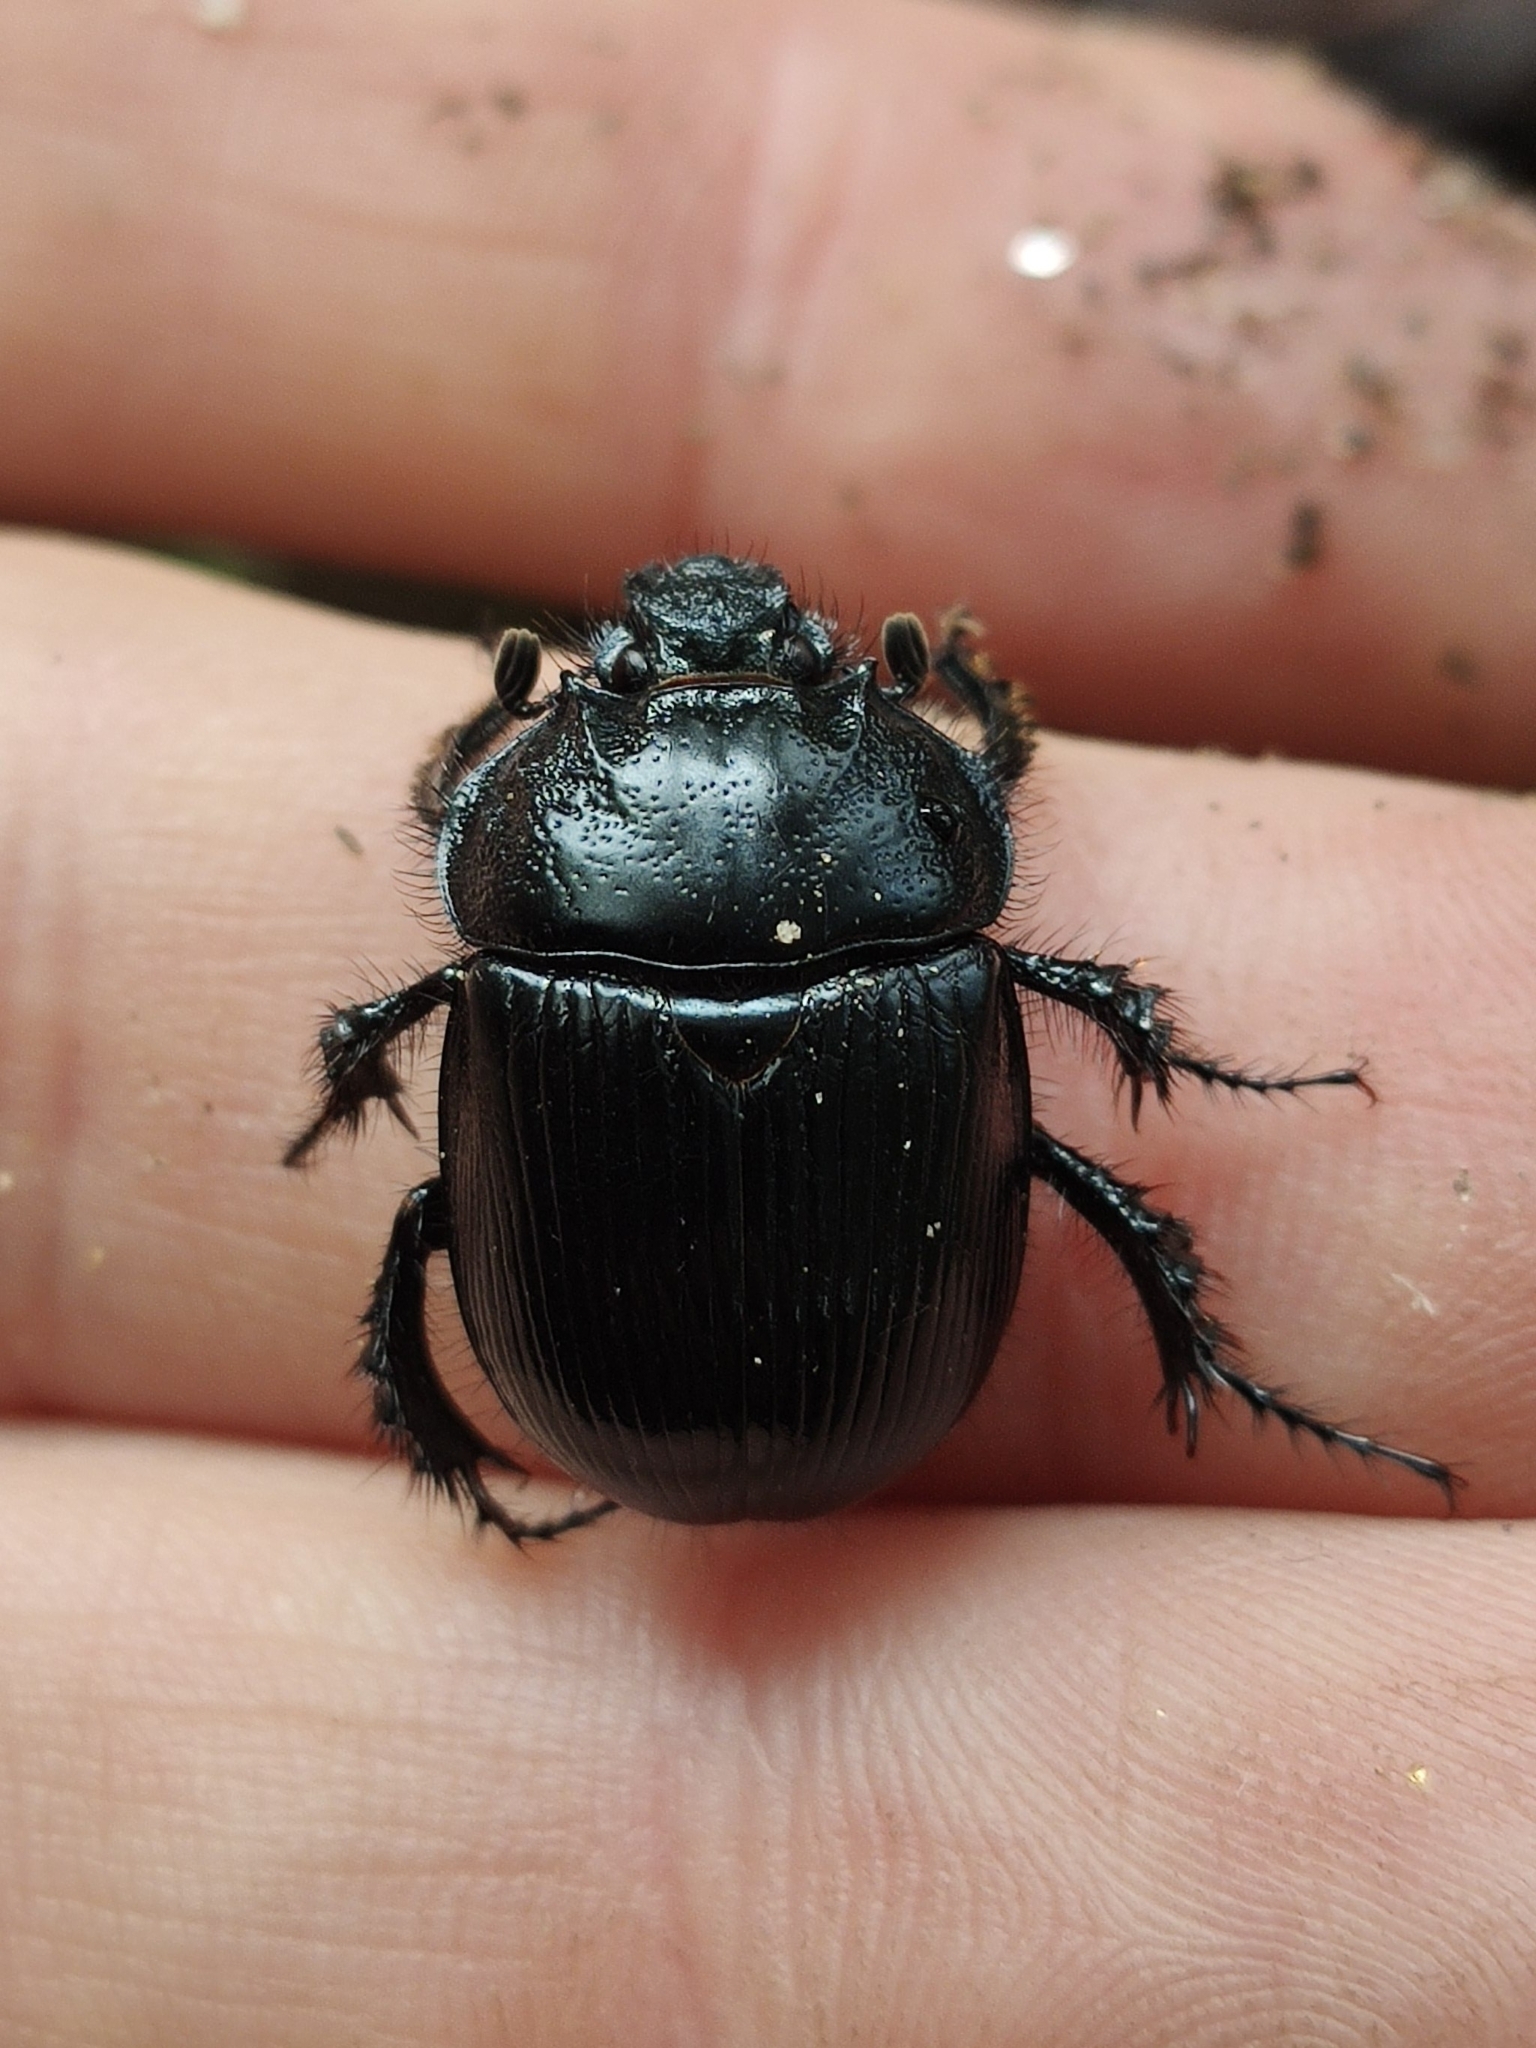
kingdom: Animalia
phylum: Arthropoda
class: Insecta
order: Coleoptera
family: Geotrupidae
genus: Typhaeus
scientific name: Typhaeus typhoeus
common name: Minotaur beetle
